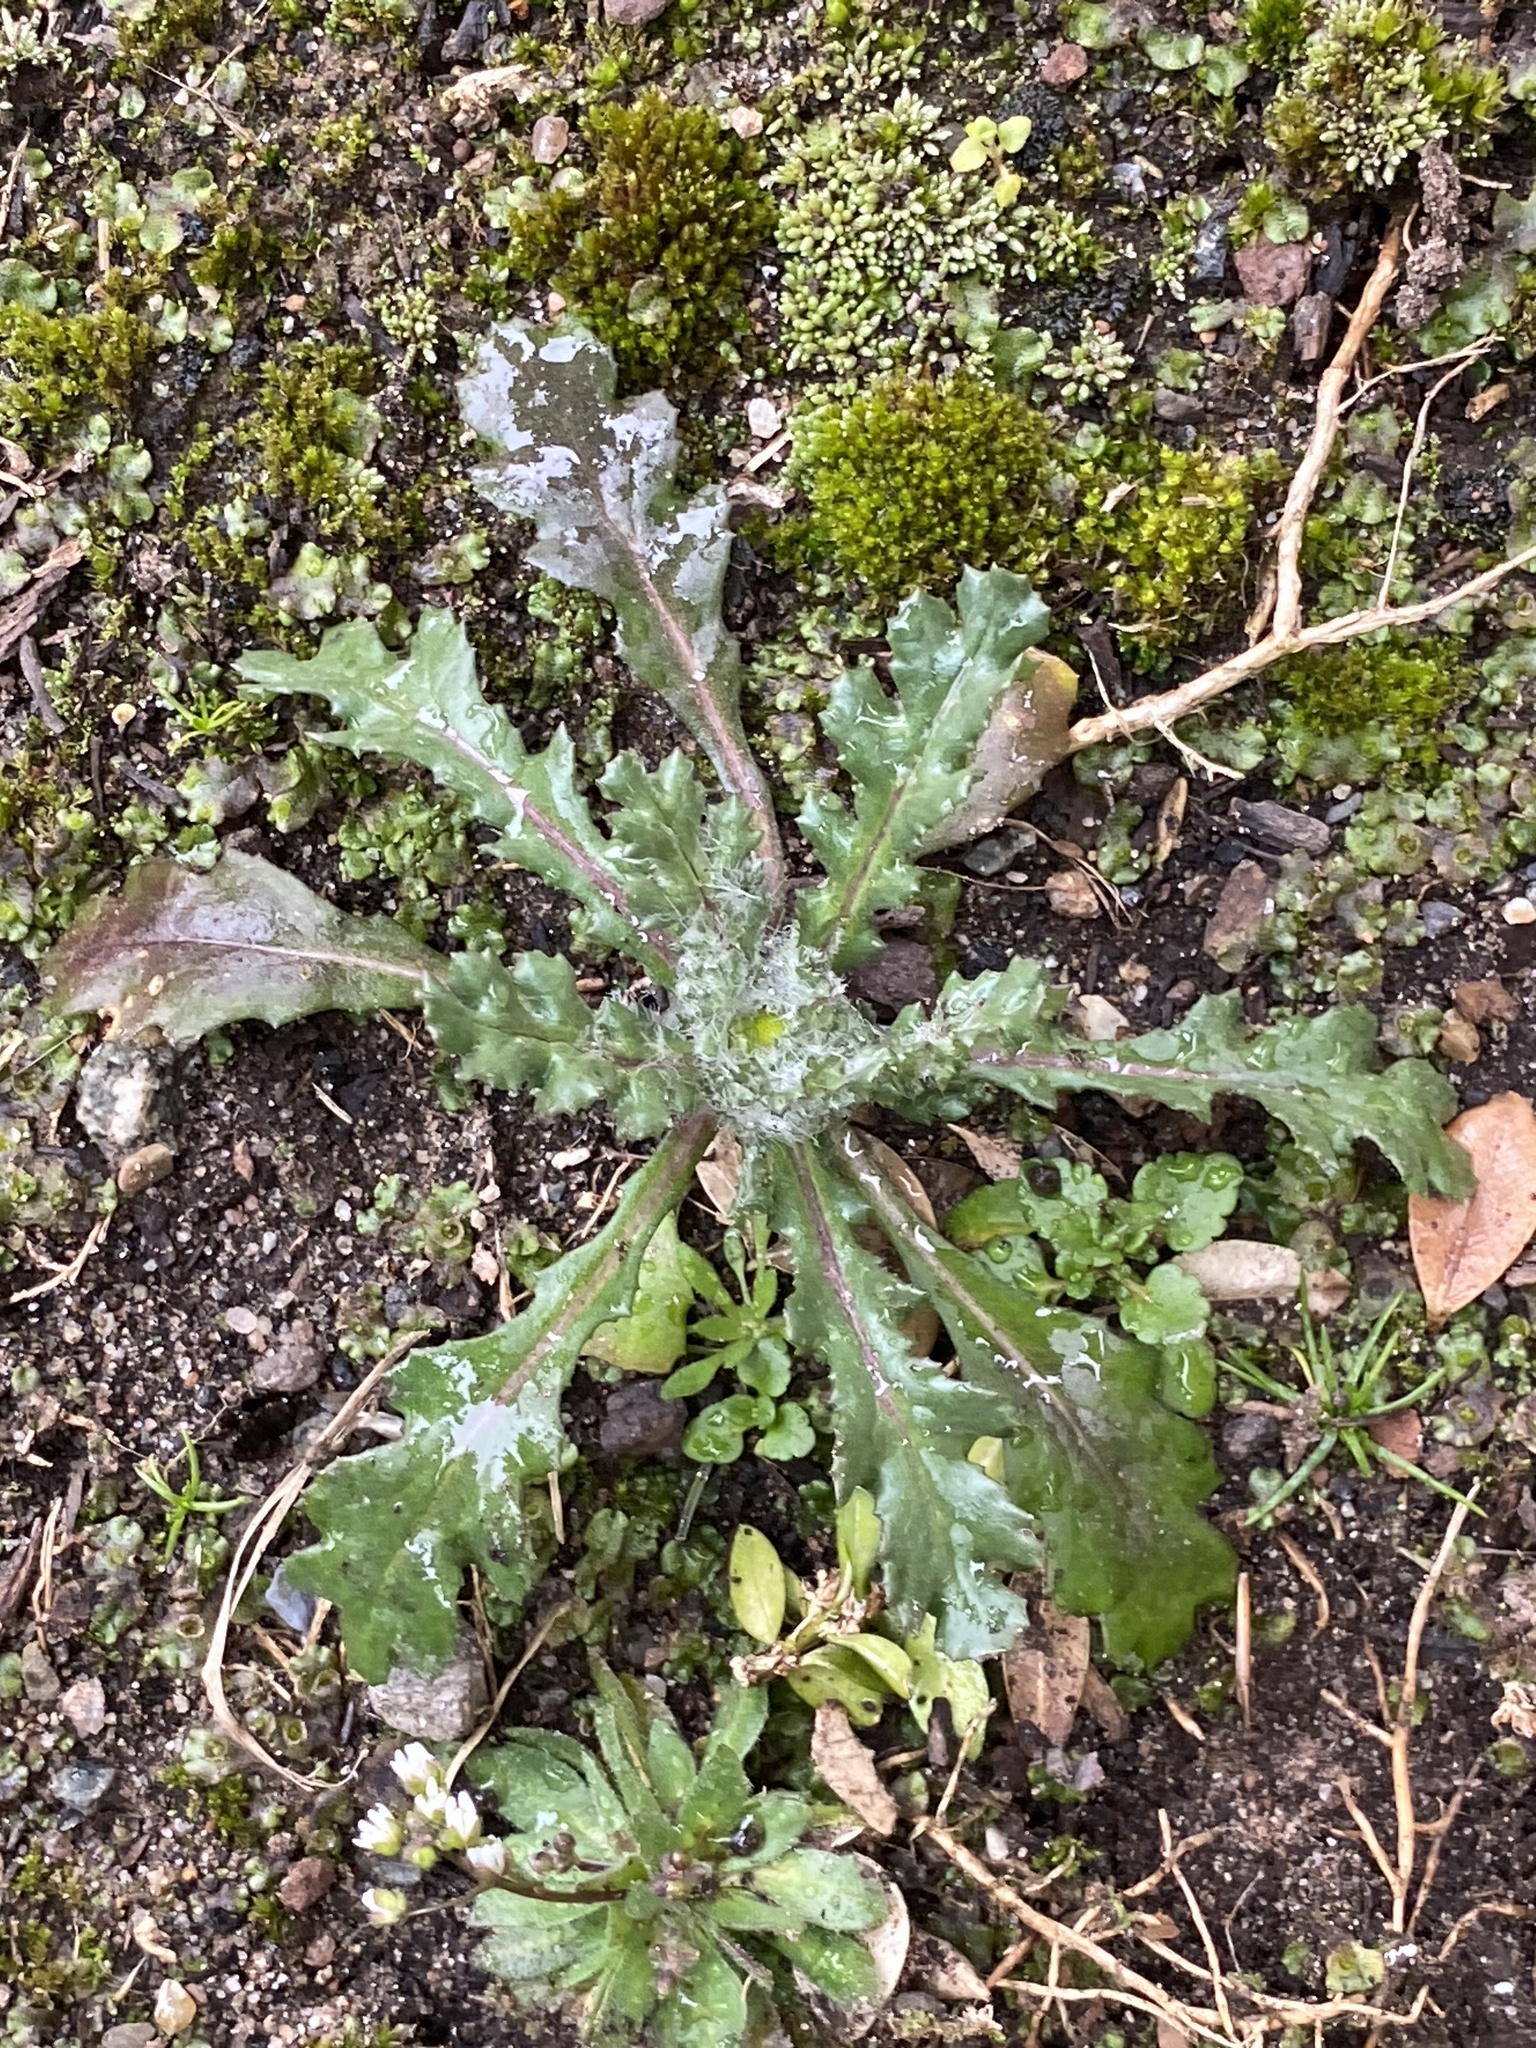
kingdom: Plantae
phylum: Tracheophyta
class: Magnoliopsida
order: Asterales
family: Asteraceae
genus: Senecio
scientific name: Senecio vulgaris
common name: Old-man-in-the-spring
